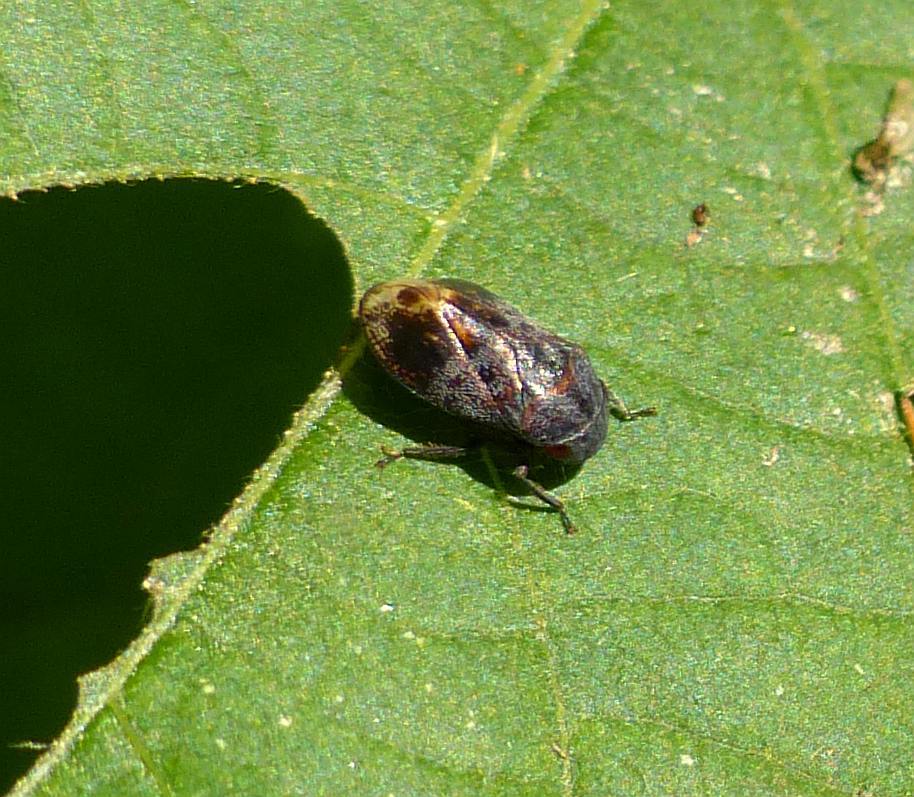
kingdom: Animalia
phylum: Arthropoda
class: Insecta
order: Hemiptera
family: Cicadellidae
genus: Penthimia
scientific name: Penthimia americana
